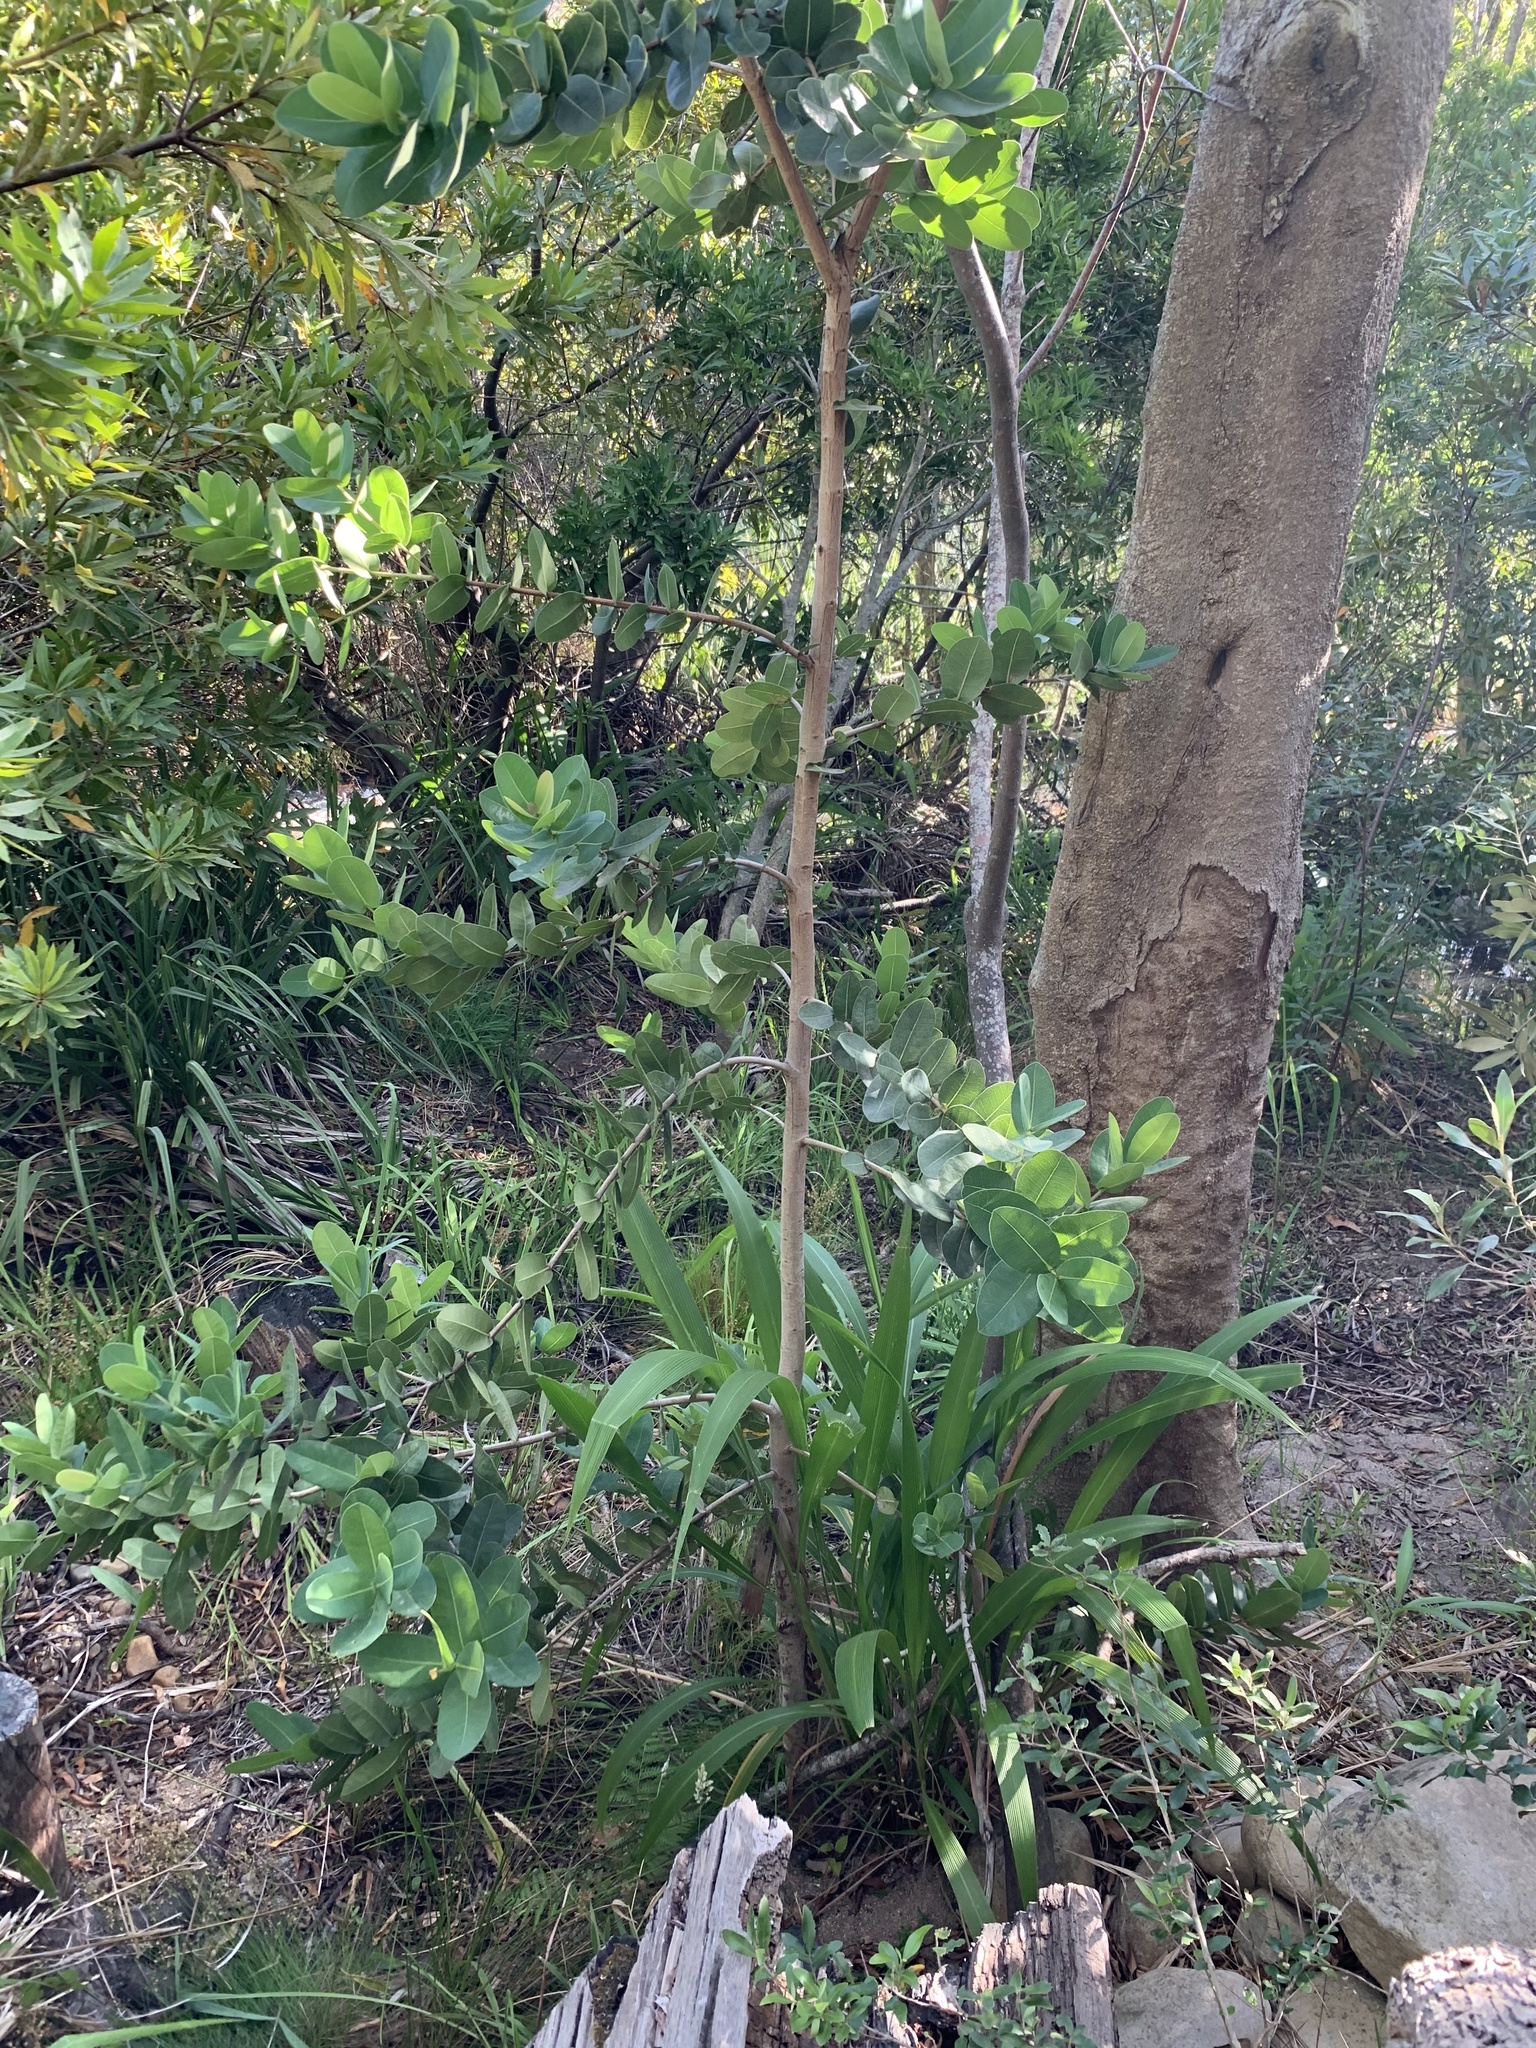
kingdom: Plantae
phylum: Tracheophyta
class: Magnoliopsida
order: Myrtales
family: Myrtaceae
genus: Syzygium
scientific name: Syzygium cordatum
